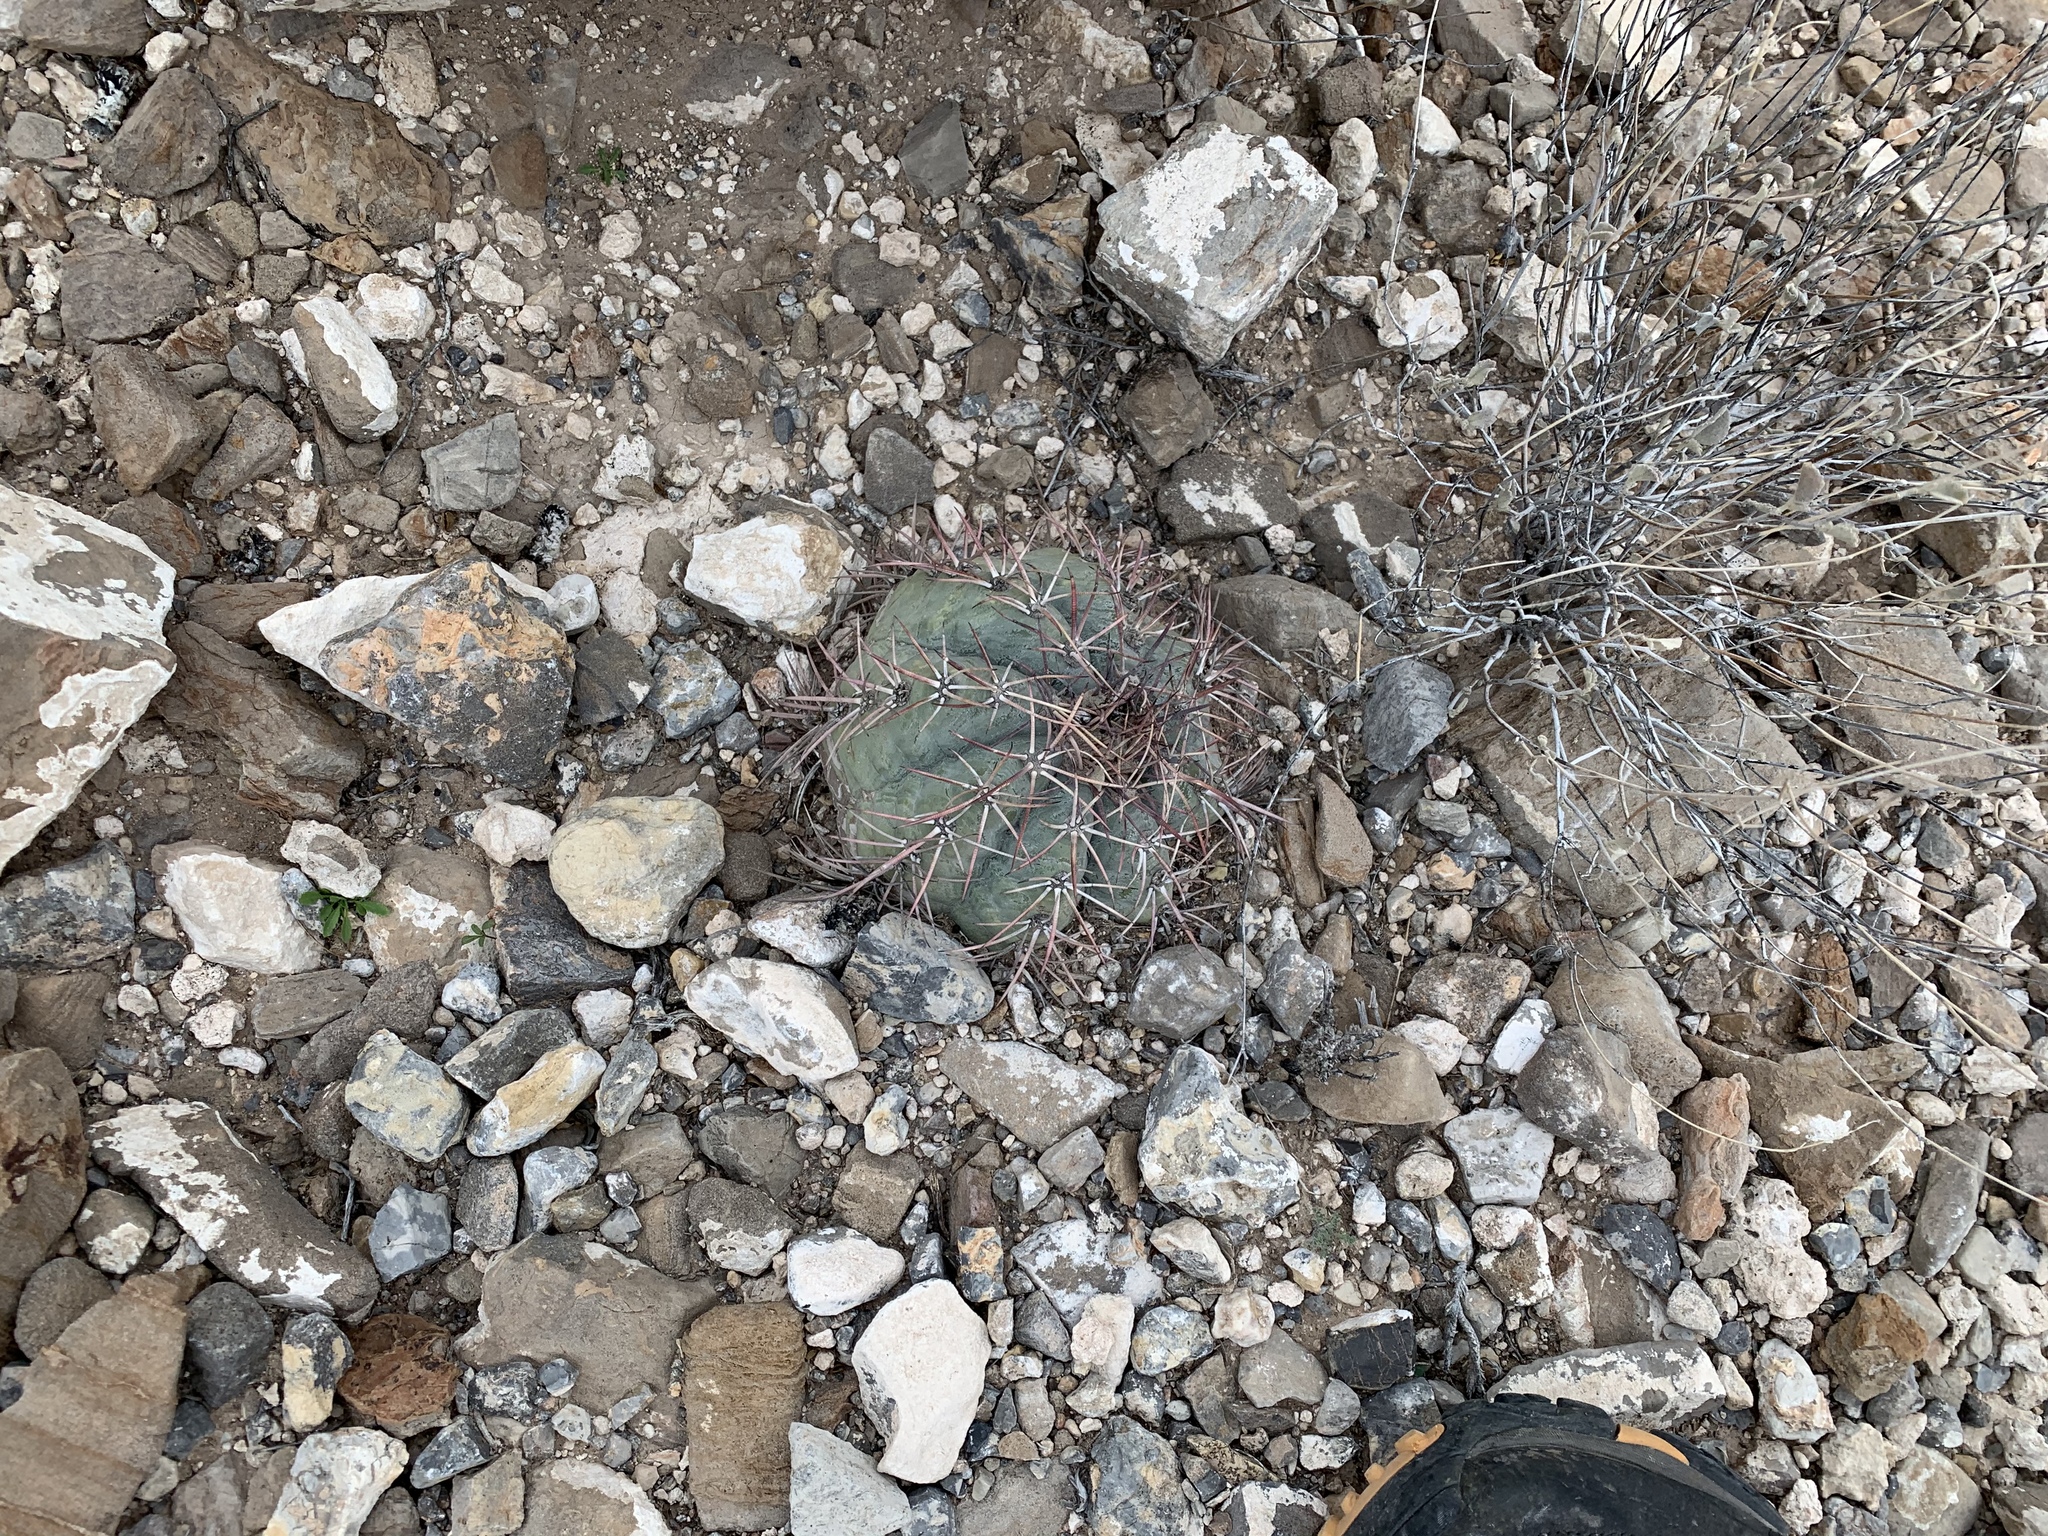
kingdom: Plantae
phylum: Tracheophyta
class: Magnoliopsida
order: Caryophyllales
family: Cactaceae
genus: Echinocactus
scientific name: Echinocactus horizonthalonius
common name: Devilshead
